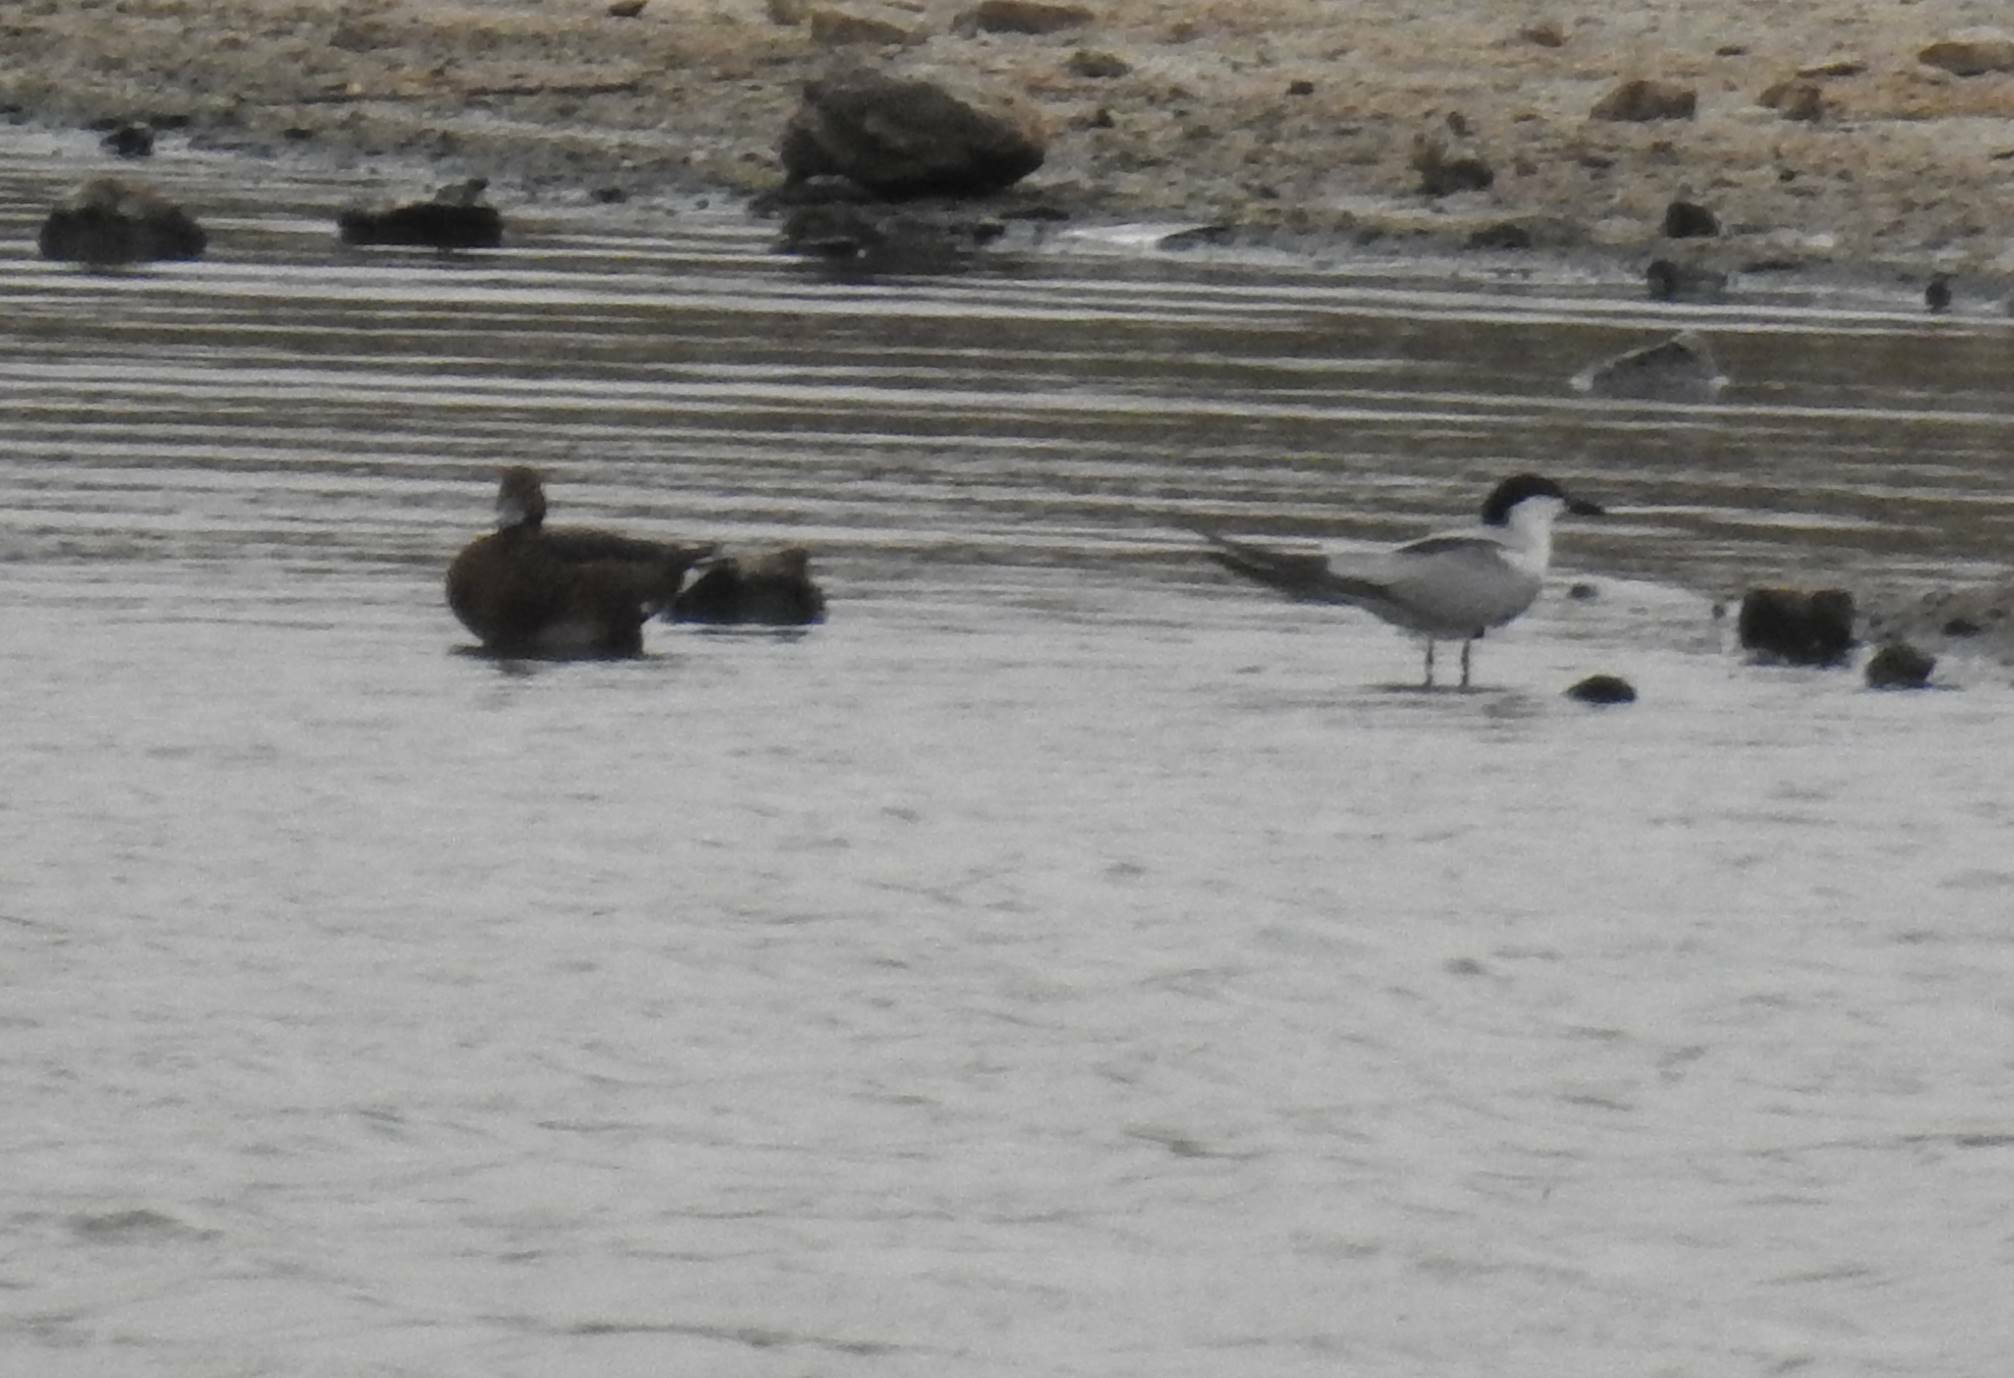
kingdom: Animalia
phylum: Chordata
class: Aves
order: Charadriiformes
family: Laridae
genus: Gelochelidon
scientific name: Gelochelidon nilotica
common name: Gull-billed tern
